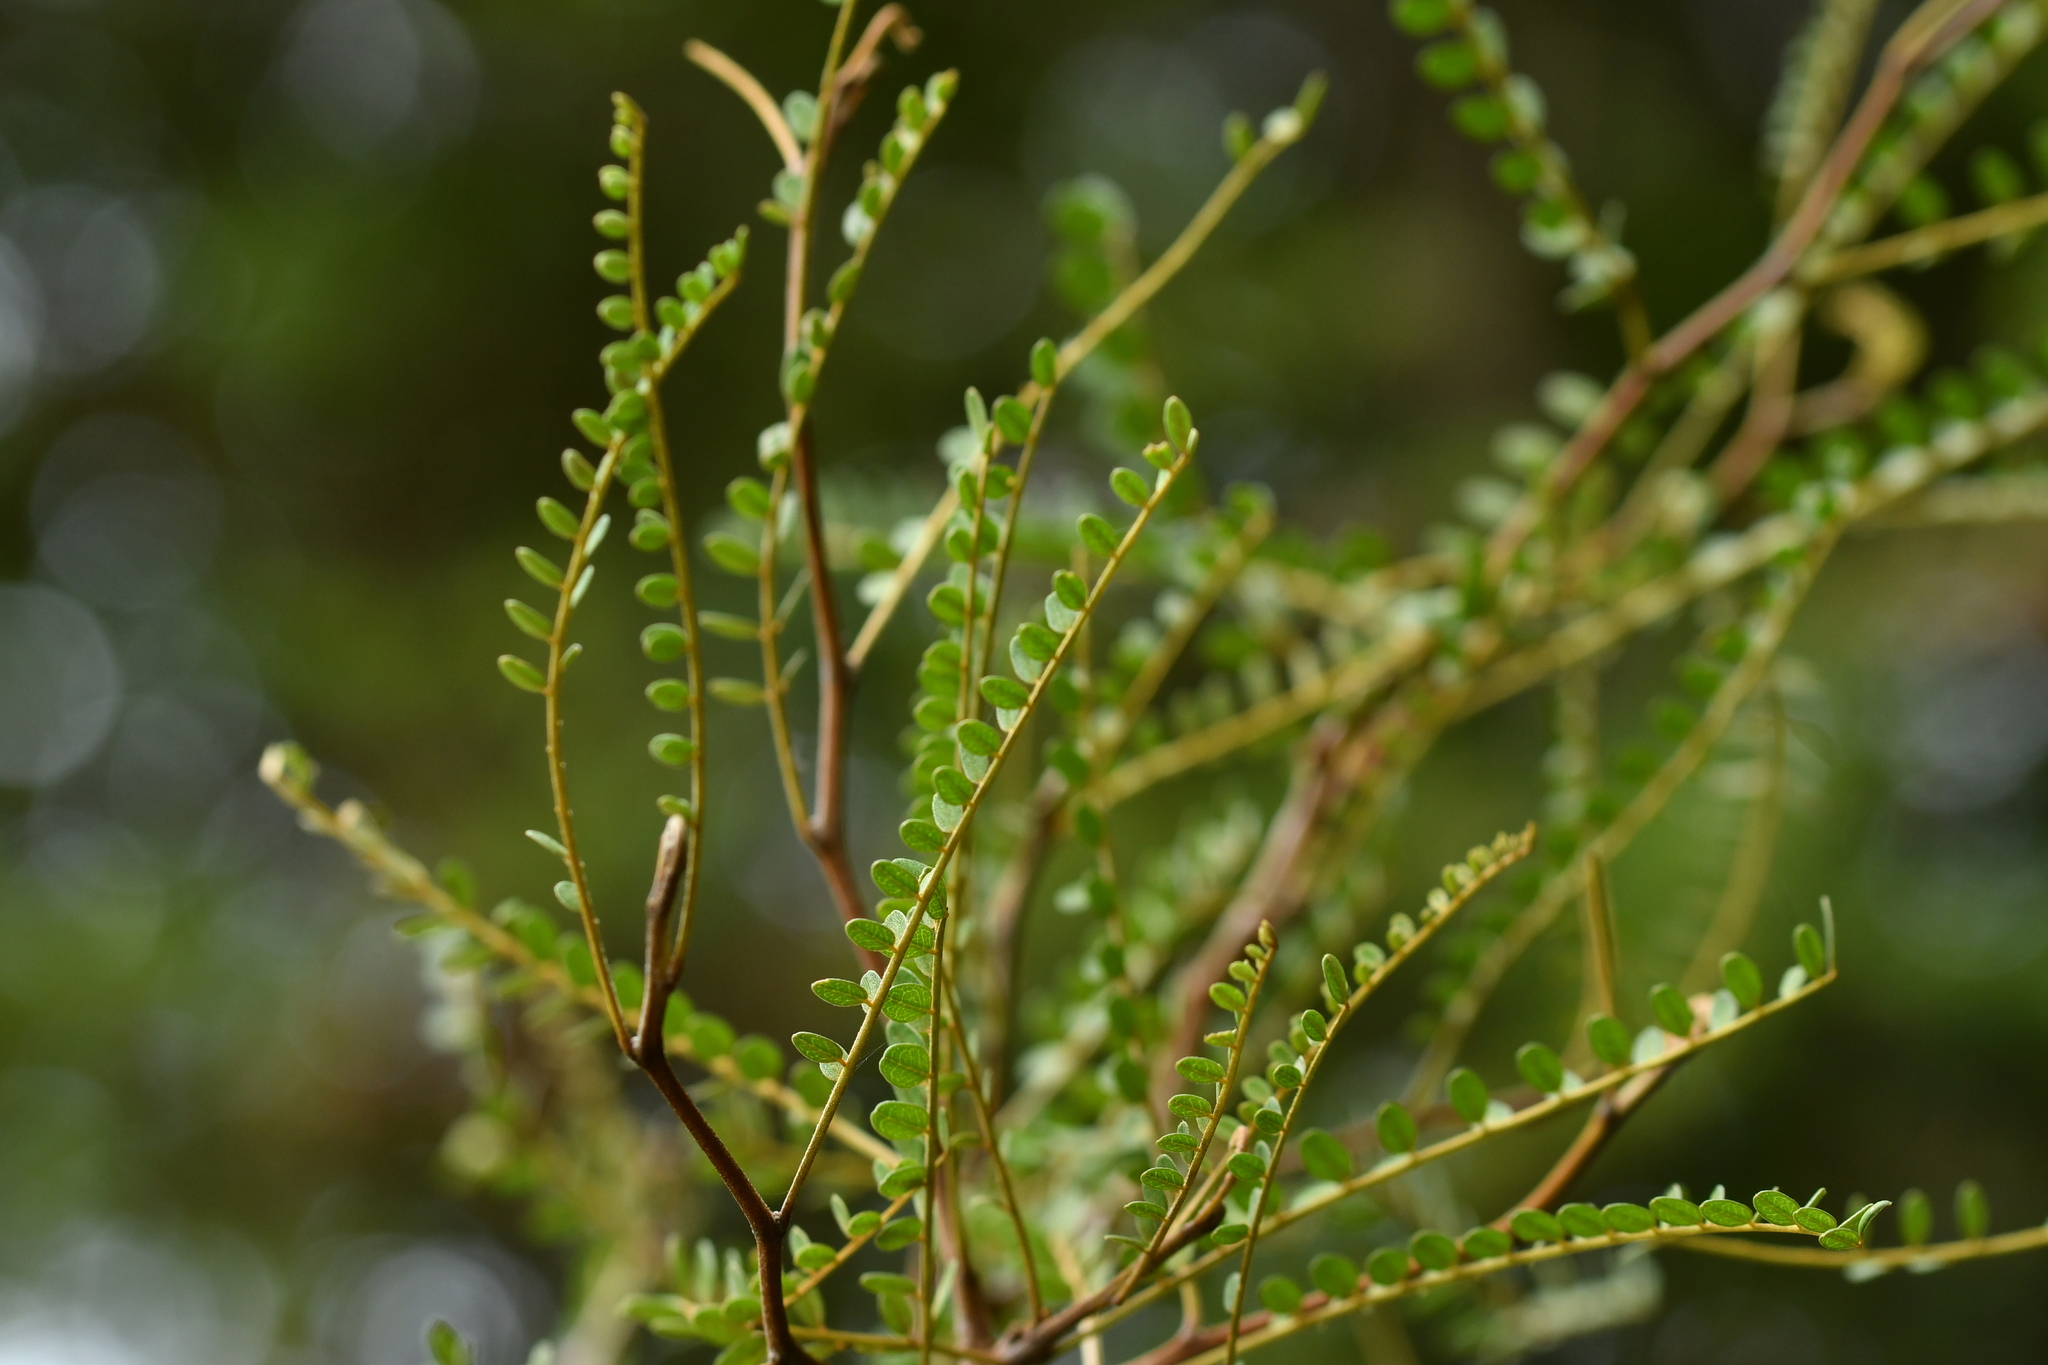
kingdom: Plantae
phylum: Tracheophyta
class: Magnoliopsida
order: Fabales
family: Fabaceae
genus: Sophora
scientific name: Sophora microphylla
